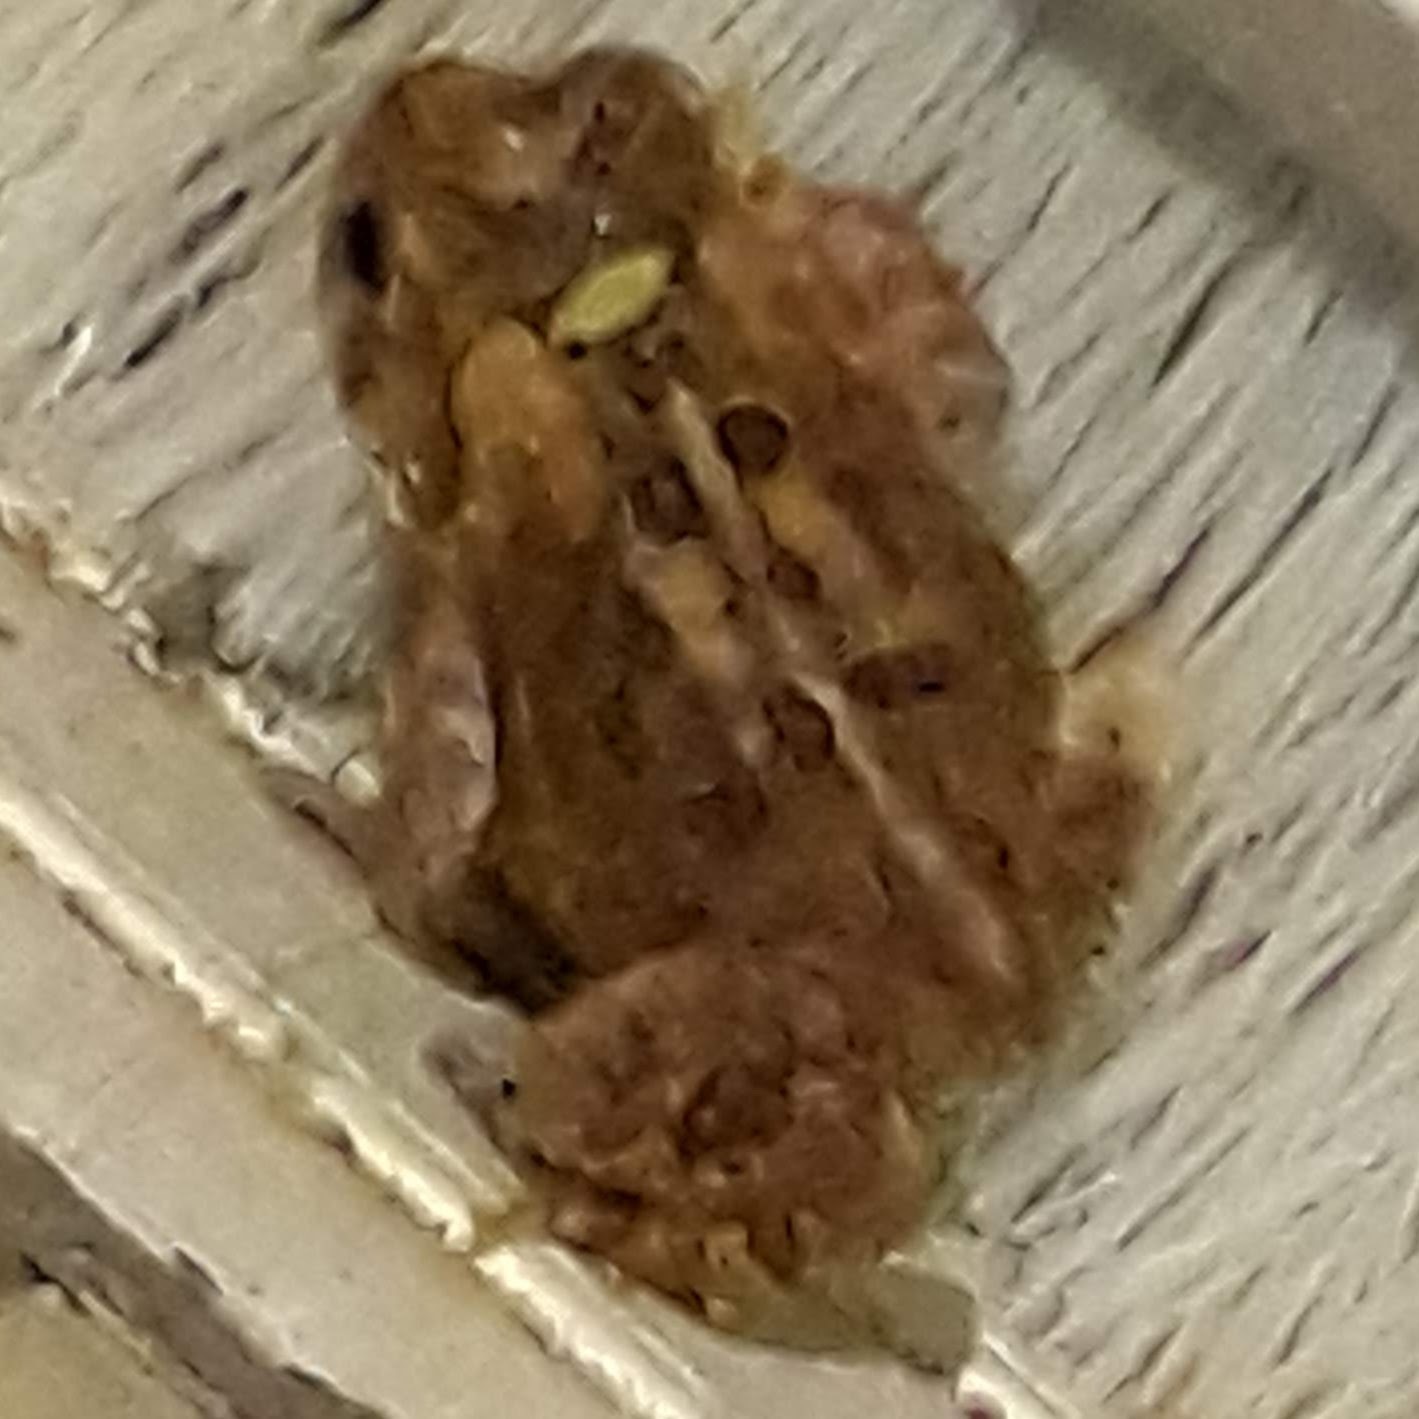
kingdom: Animalia
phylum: Chordata
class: Amphibia
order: Anura
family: Bufonidae
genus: Anaxyrus
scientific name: Anaxyrus americanus
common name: American toad
